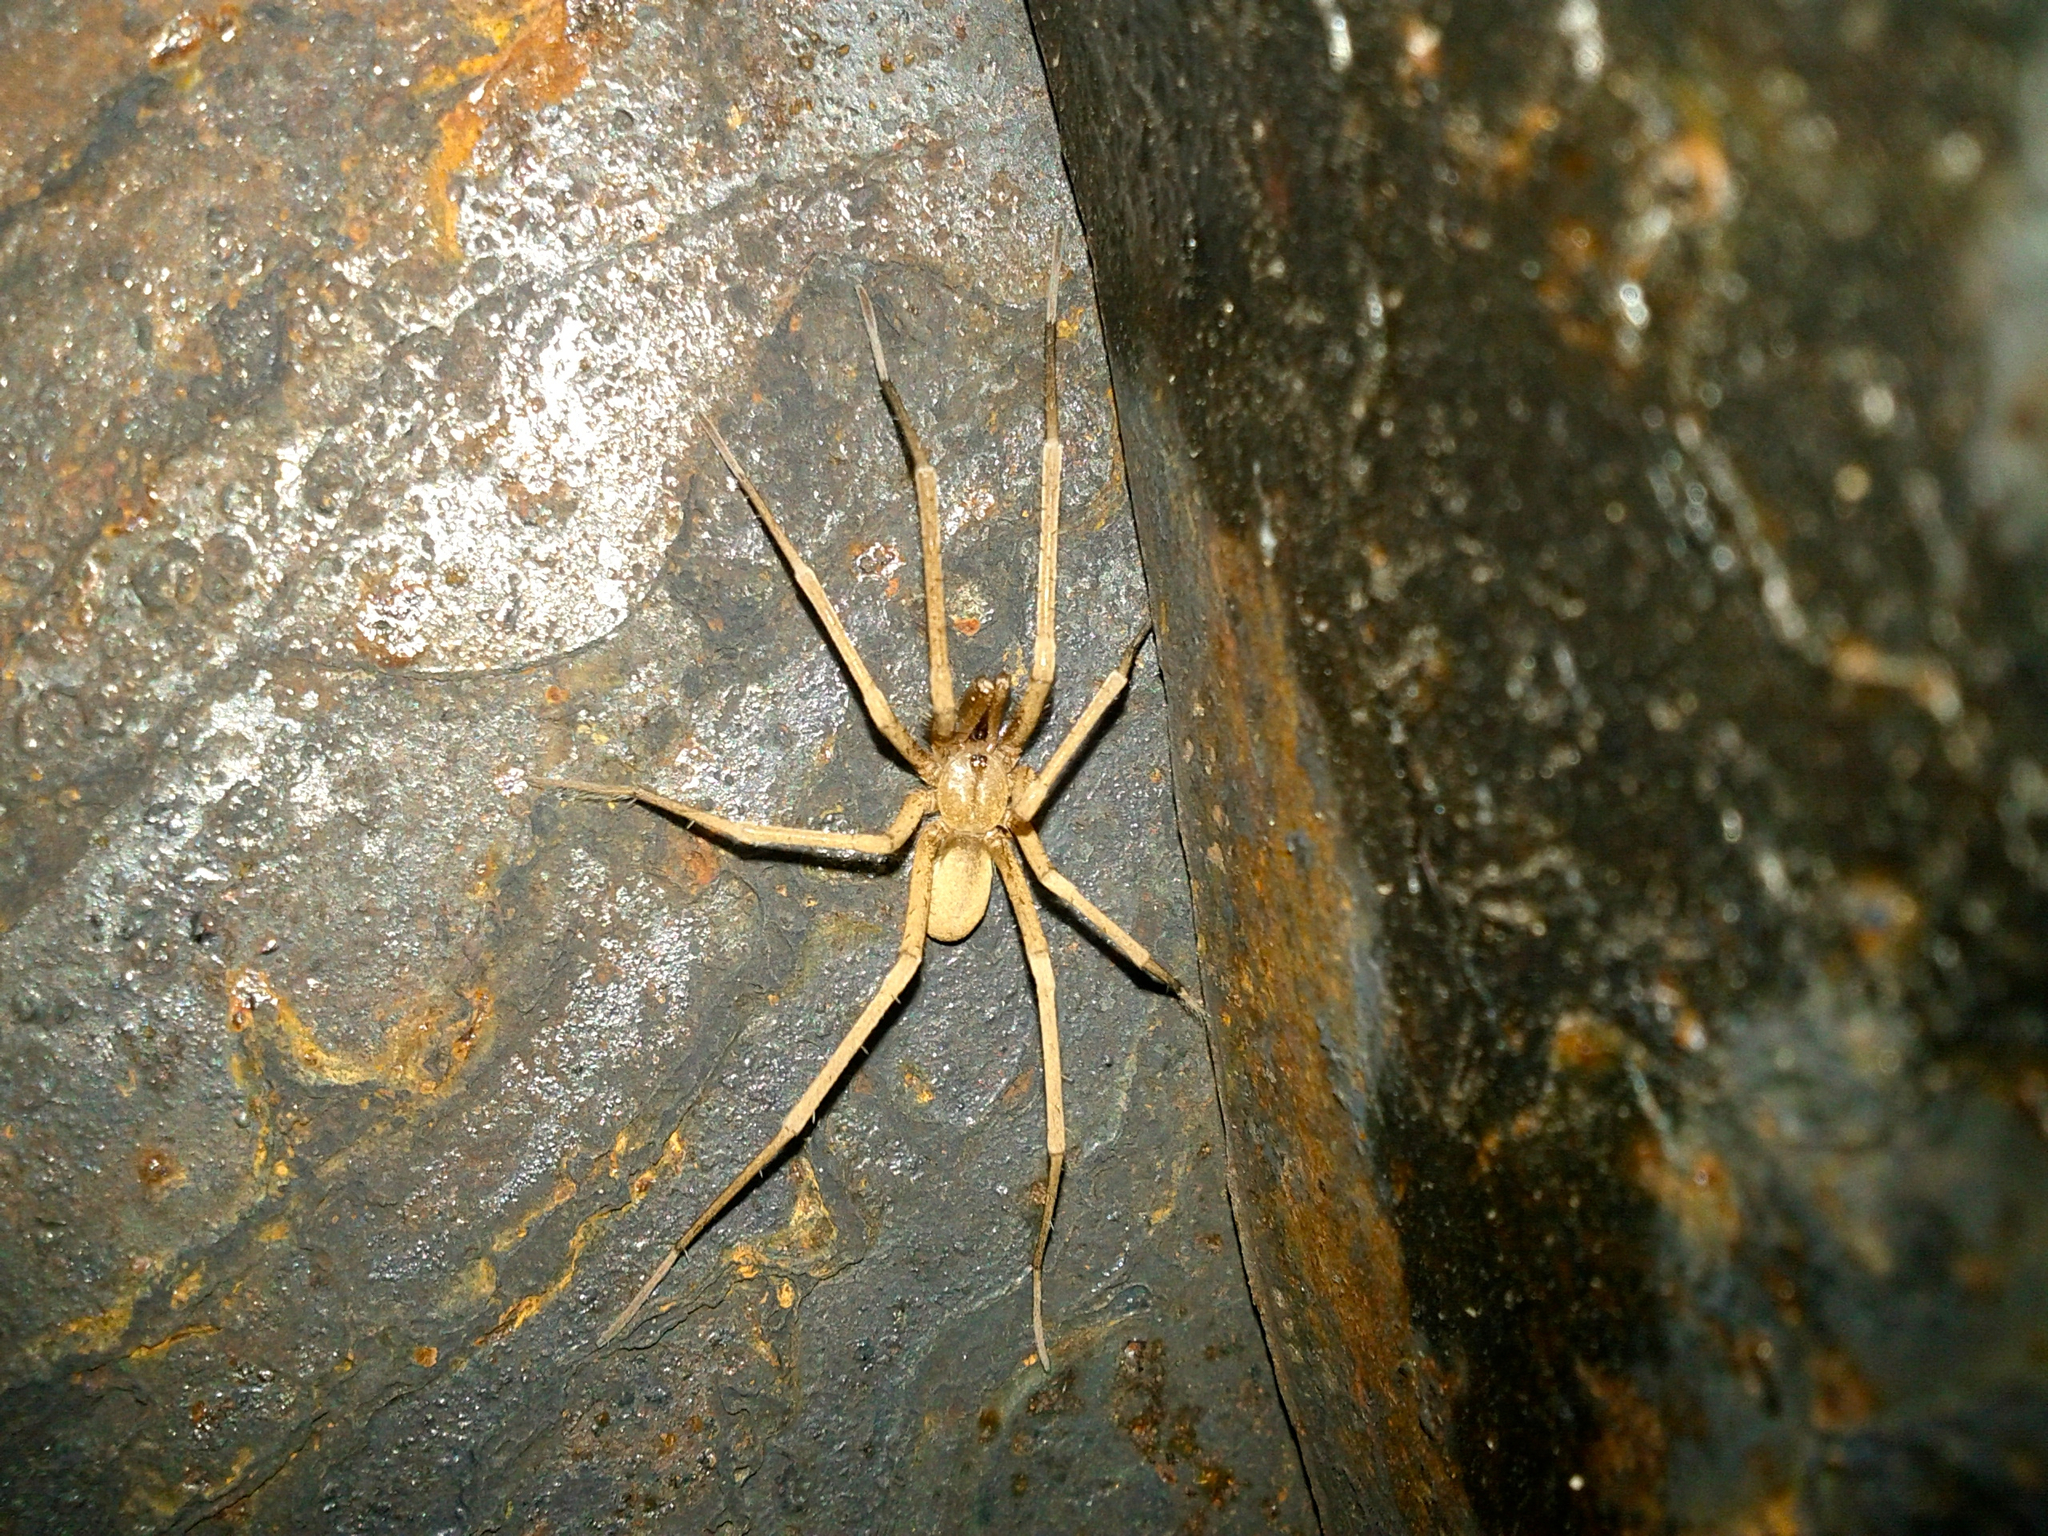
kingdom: Animalia
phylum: Arthropoda
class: Arachnida
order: Araneae
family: Filistatidae
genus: Kukulcania
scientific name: Kukulcania arizonica
